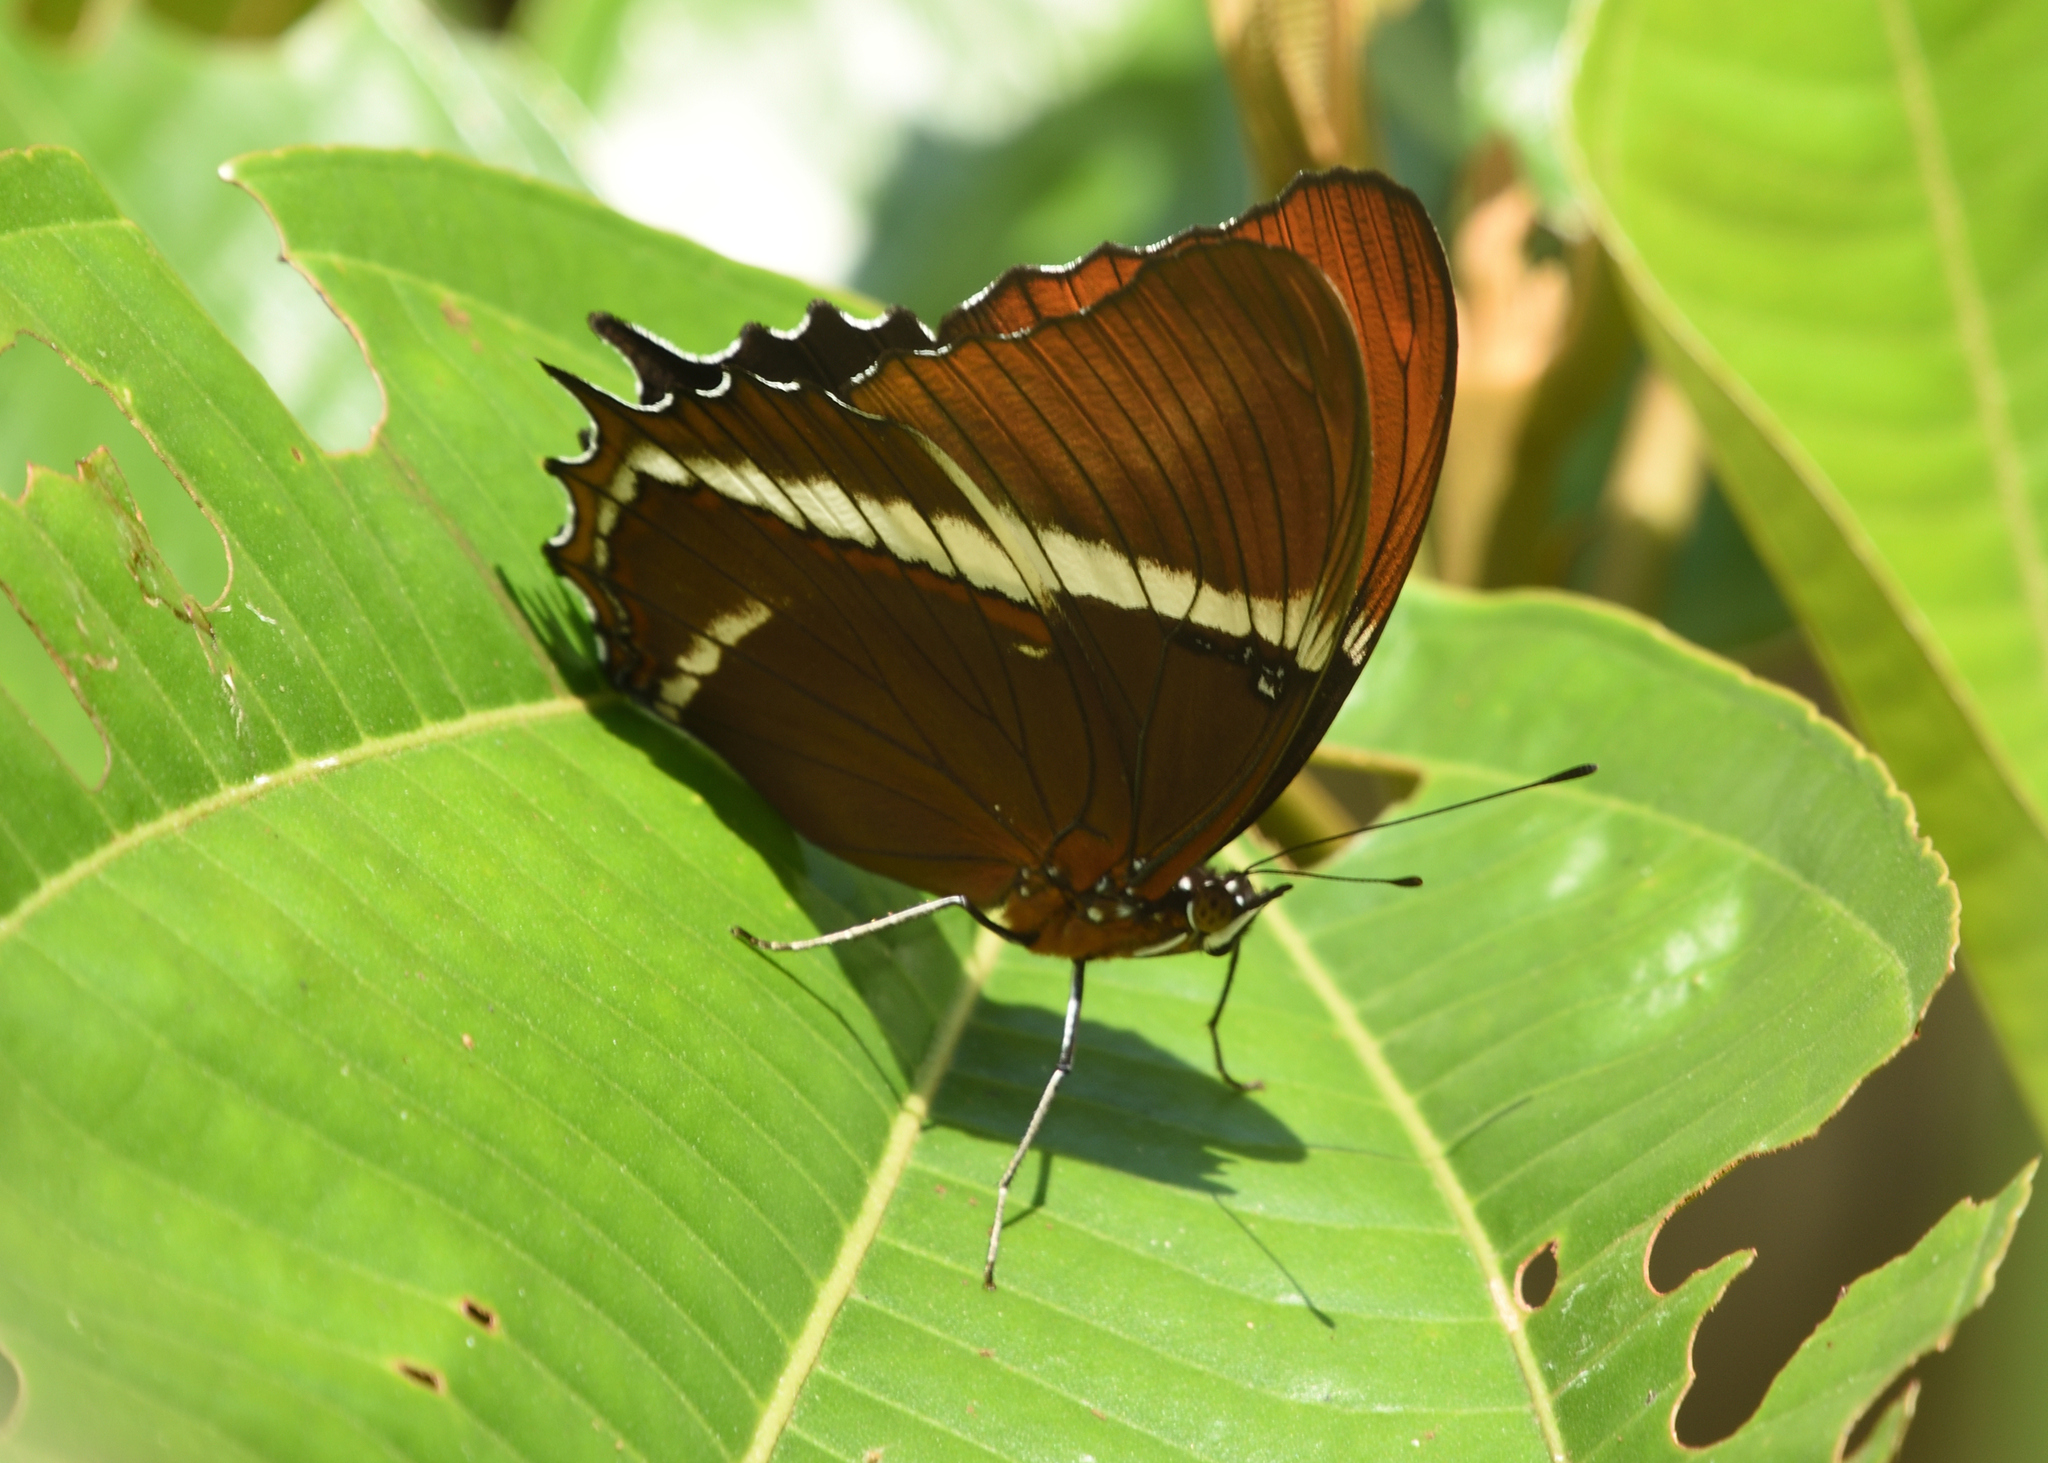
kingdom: Animalia
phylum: Arthropoda
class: Insecta
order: Lepidoptera
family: Nymphalidae
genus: Siproeta
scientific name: Siproeta epaphus
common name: Rusty-tipped page
